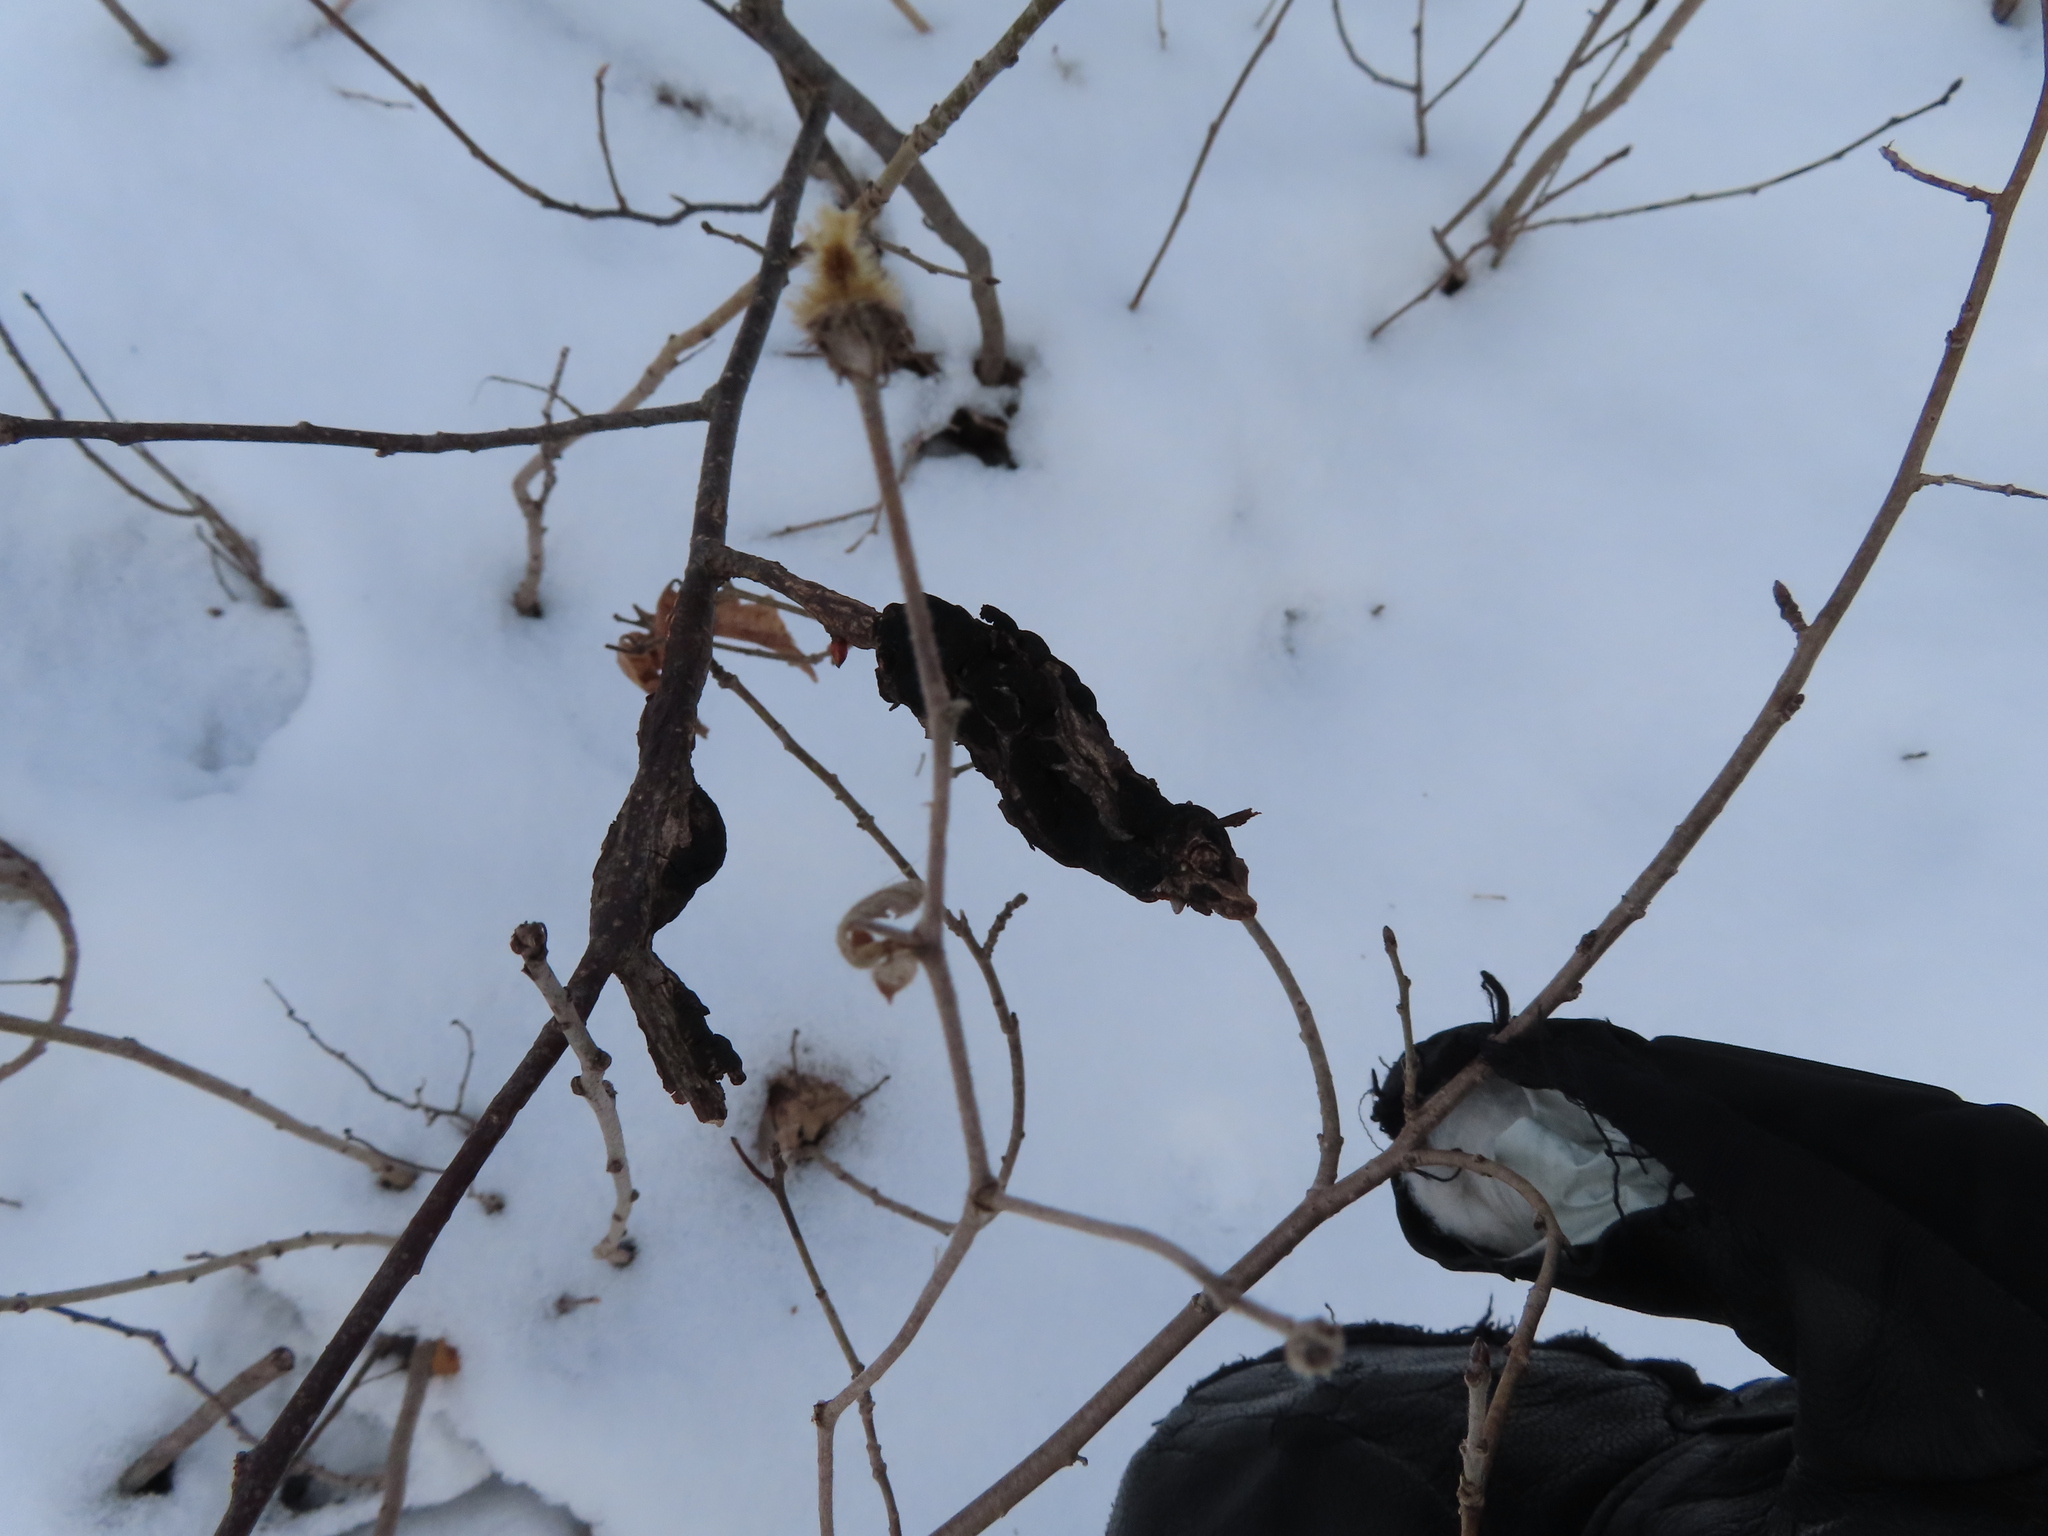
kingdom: Fungi
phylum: Ascomycota
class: Dothideomycetes
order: Venturiales
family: Venturiaceae
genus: Apiosporina
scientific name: Apiosporina morbosa
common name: Black knot
